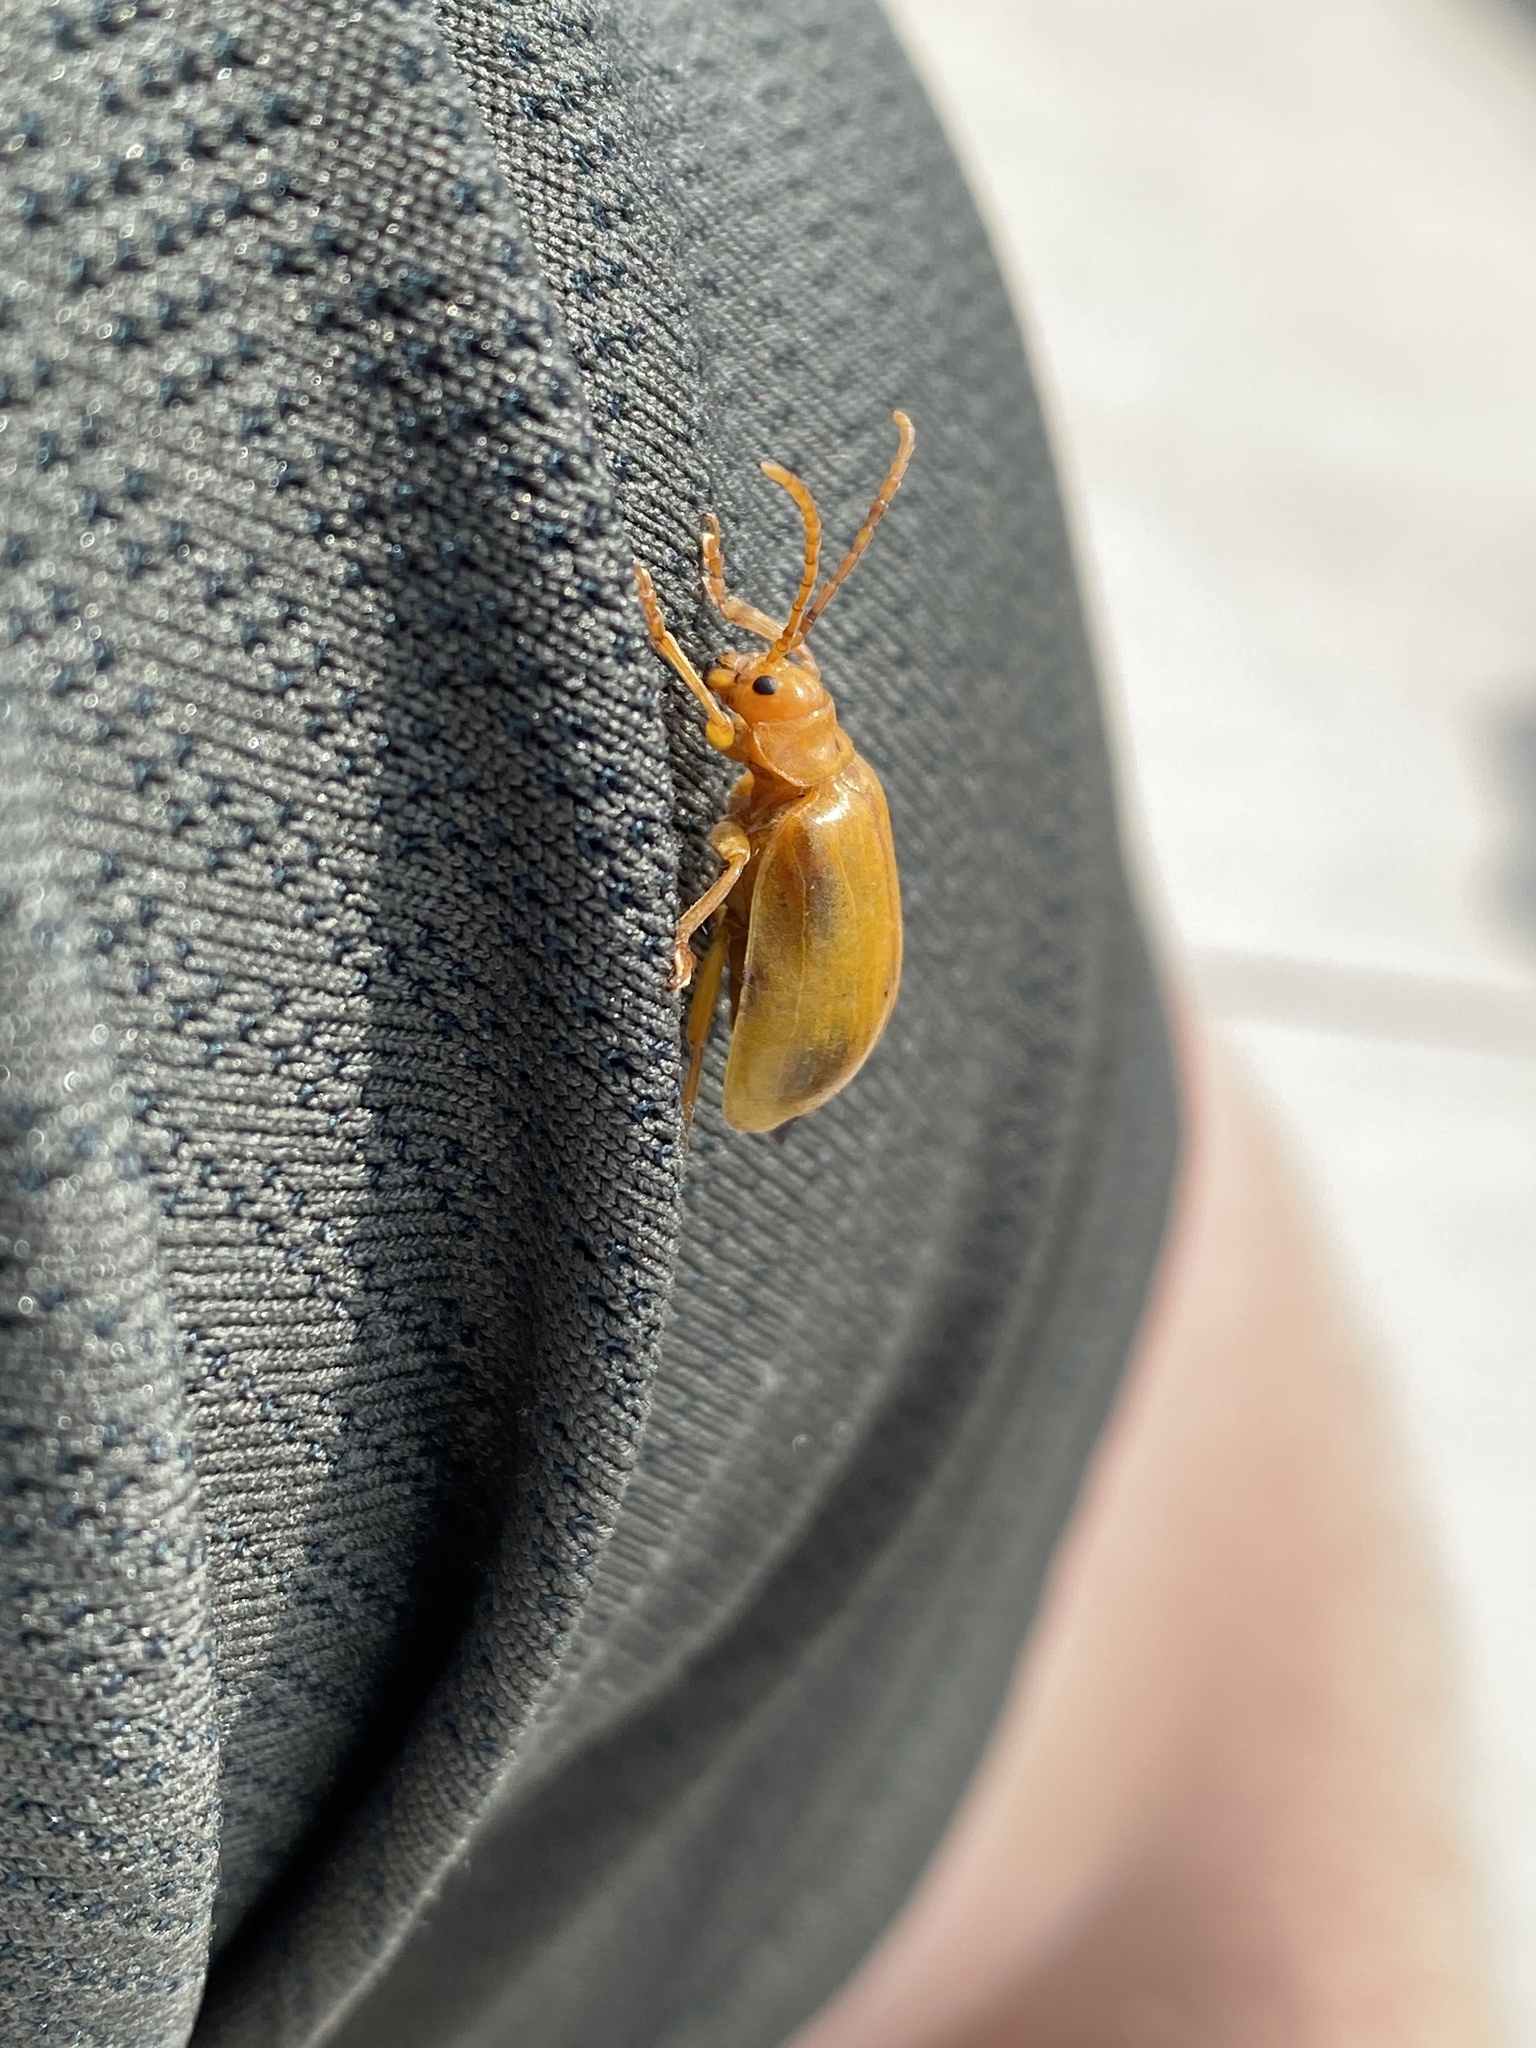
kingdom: Animalia
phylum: Arthropoda
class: Insecta
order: Coleoptera
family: Chrysomelidae
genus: Monocesta
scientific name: Monocesta coryli
